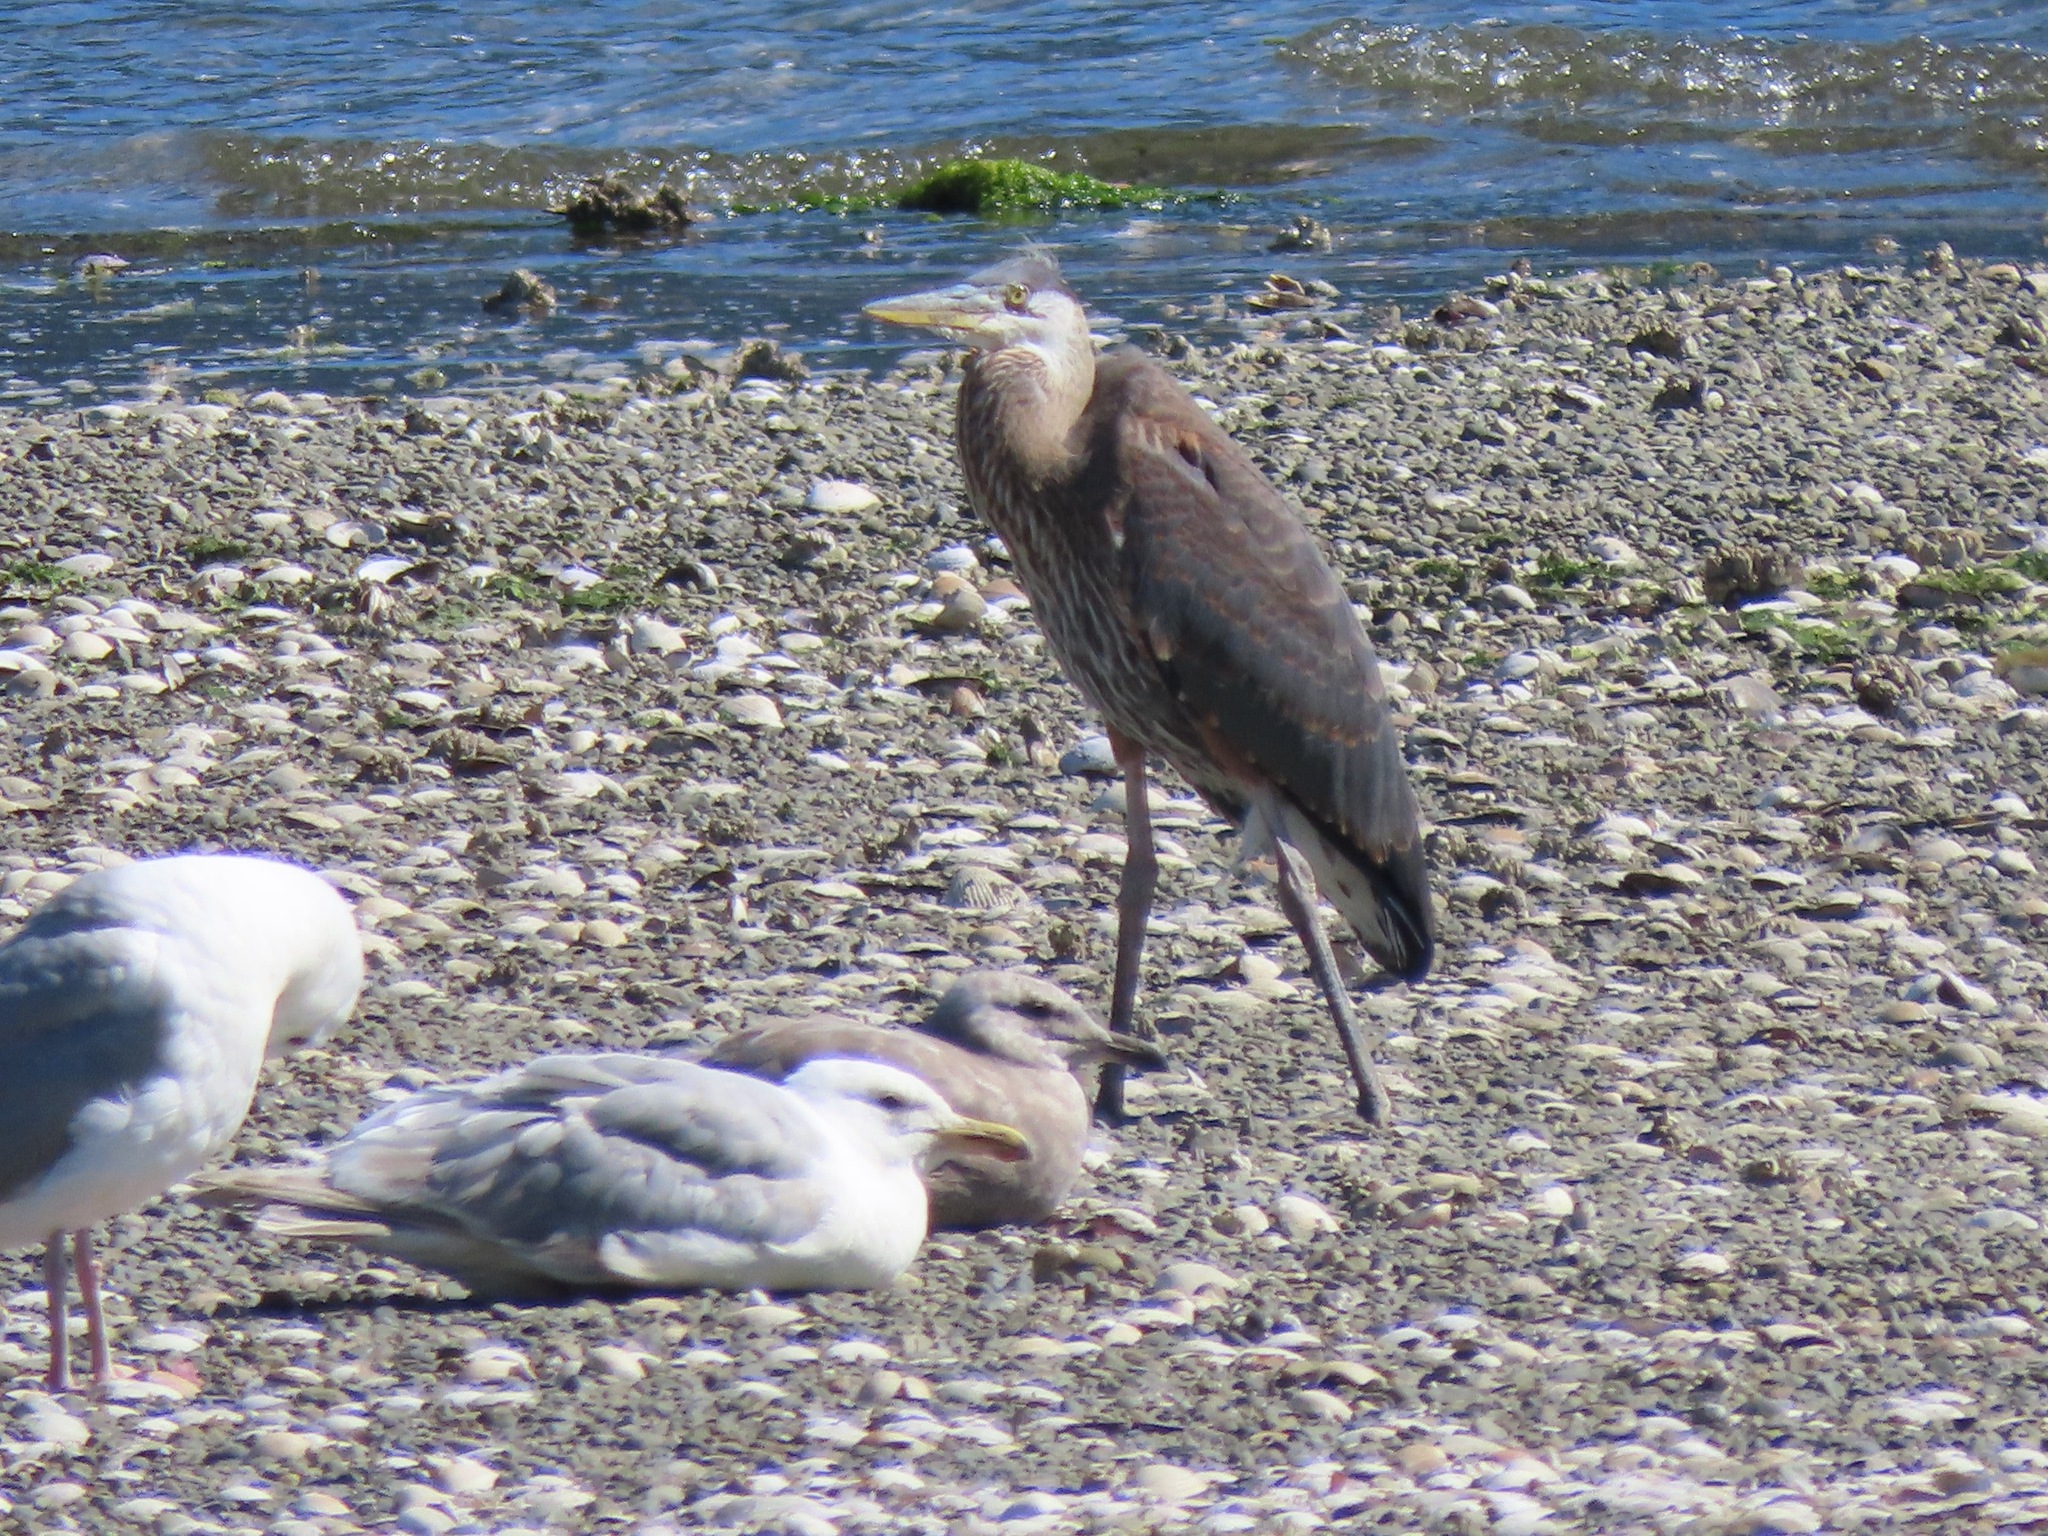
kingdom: Animalia
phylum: Chordata
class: Aves
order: Pelecaniformes
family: Ardeidae
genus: Ardea
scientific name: Ardea herodias
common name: Great blue heron
